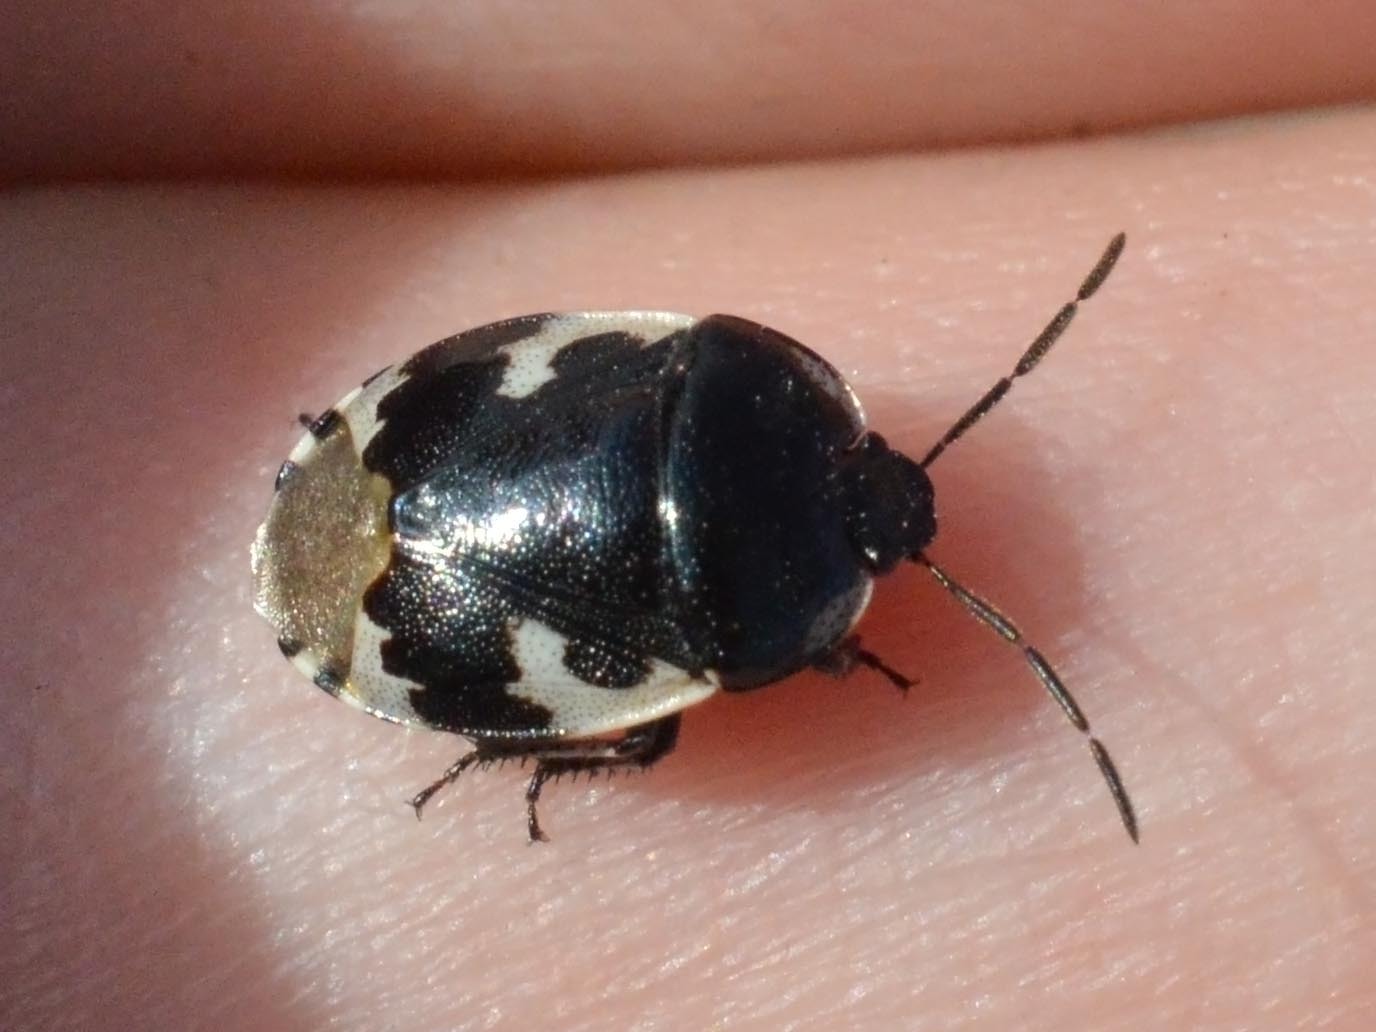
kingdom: Animalia
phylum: Arthropoda
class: Insecta
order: Hemiptera
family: Cydnidae
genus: Tritomegas
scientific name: Tritomegas bicolor
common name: Pied shieldbug
